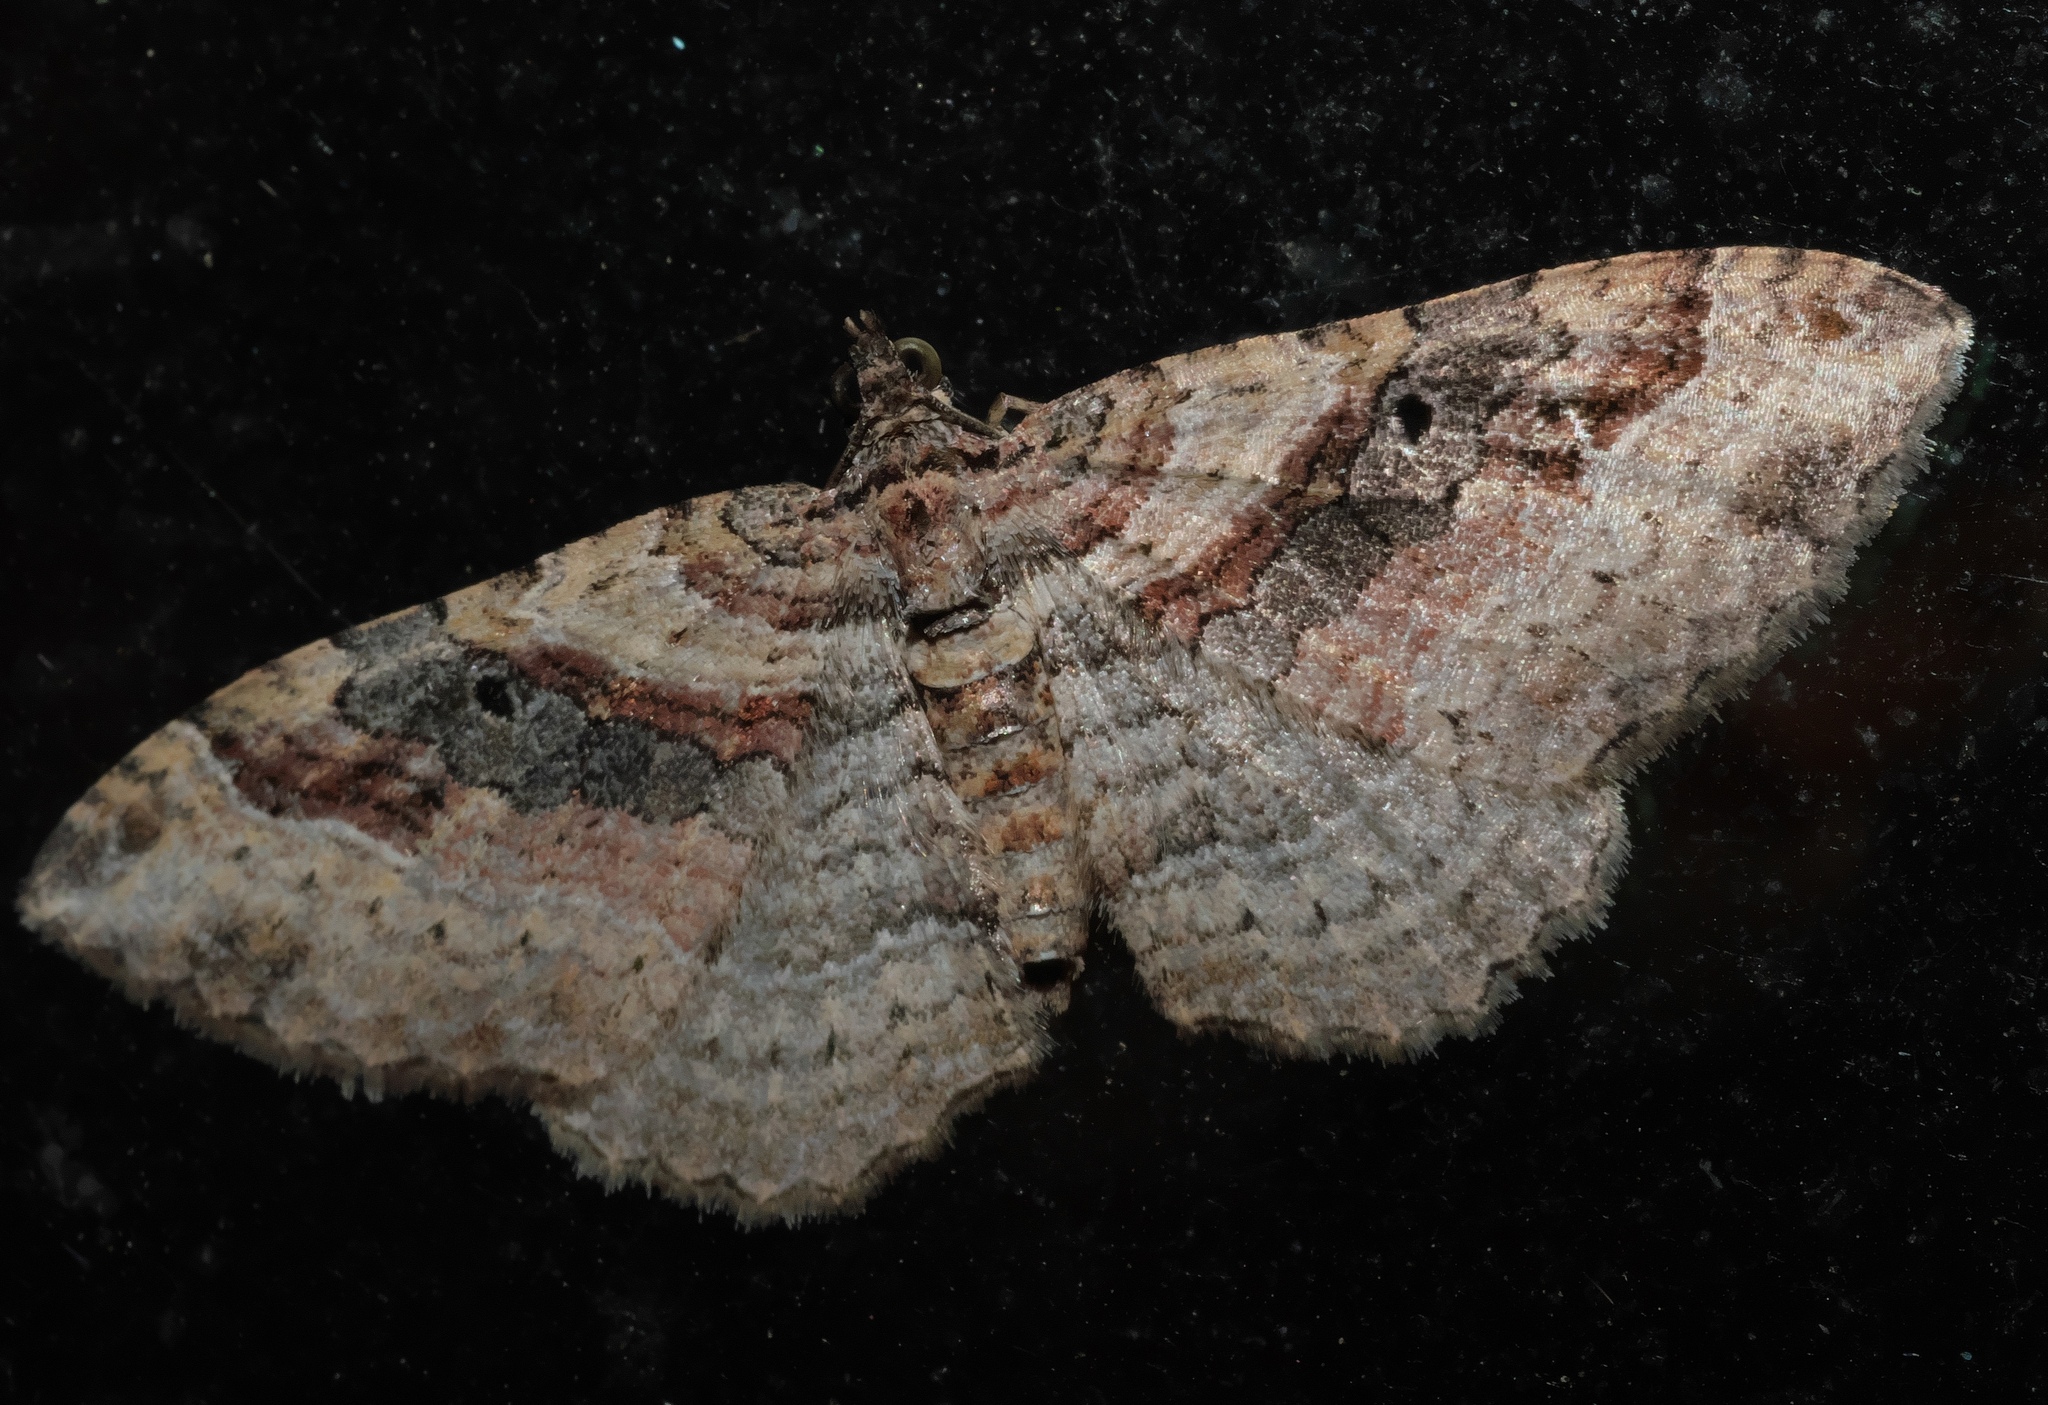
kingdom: Animalia
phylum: Arthropoda
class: Insecta
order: Lepidoptera
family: Geometridae
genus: Costaconvexa
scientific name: Costaconvexa centrostrigaria
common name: Bent-line carpet
